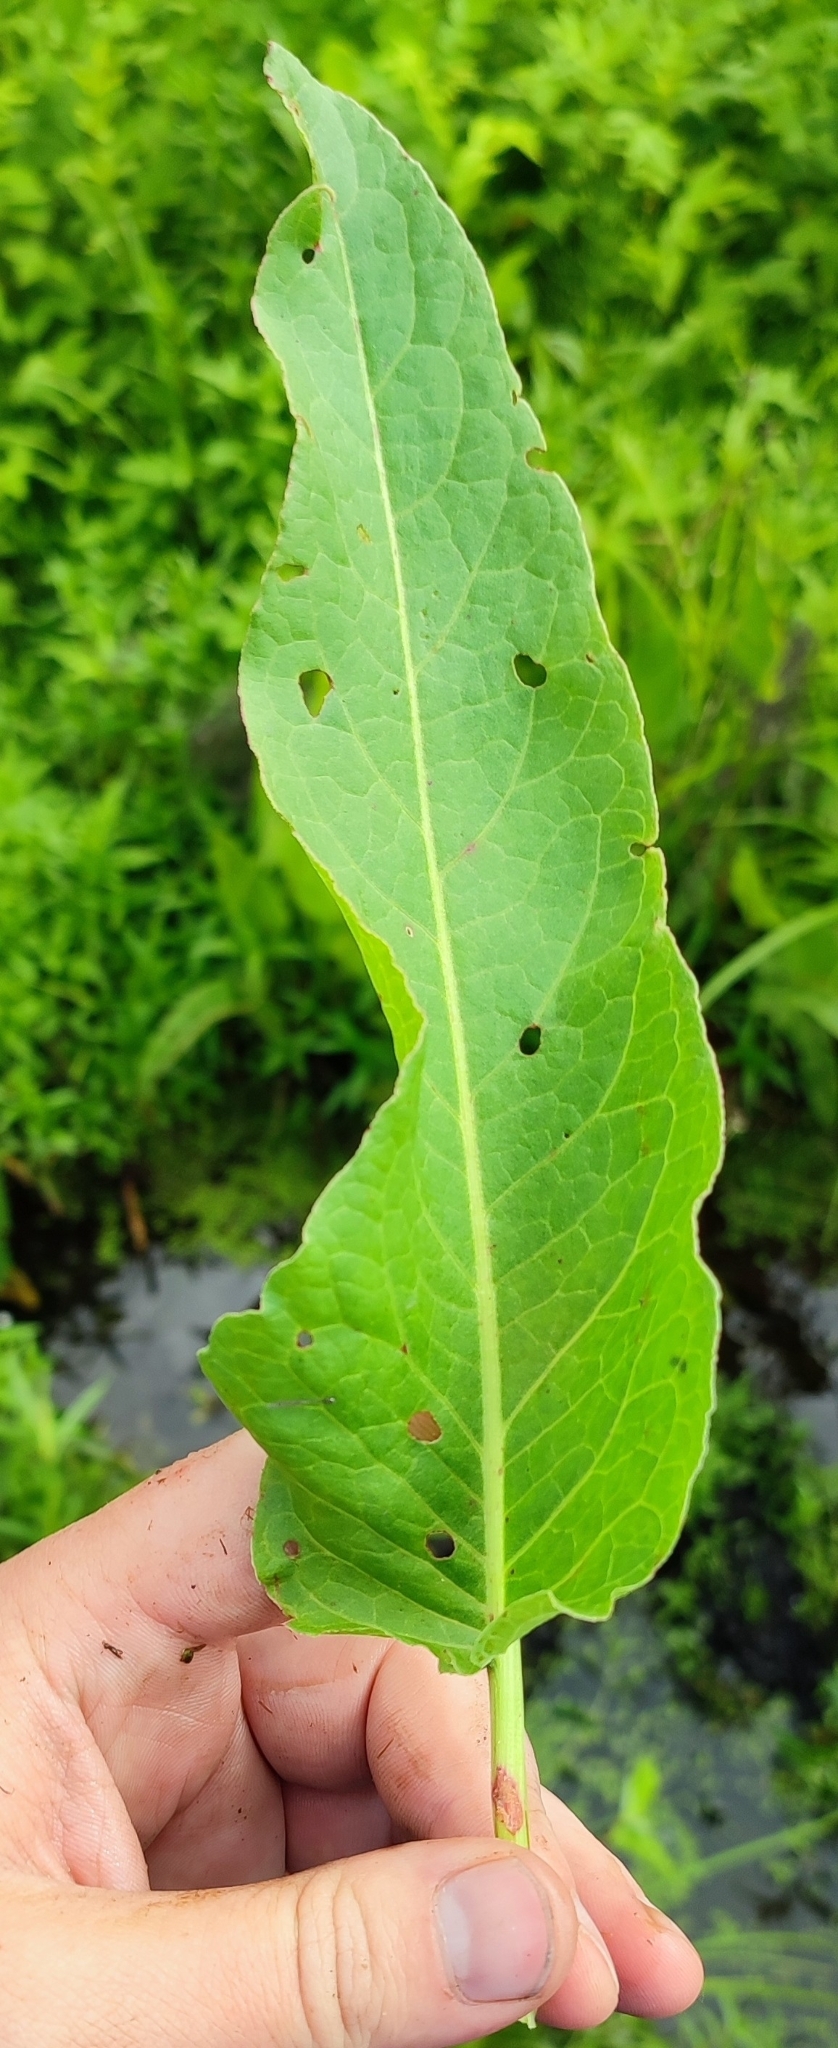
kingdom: Plantae
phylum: Tracheophyta
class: Magnoliopsida
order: Caryophyllales
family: Polygonaceae
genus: Rumex
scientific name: Rumex aquaticus
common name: Scottish dock
